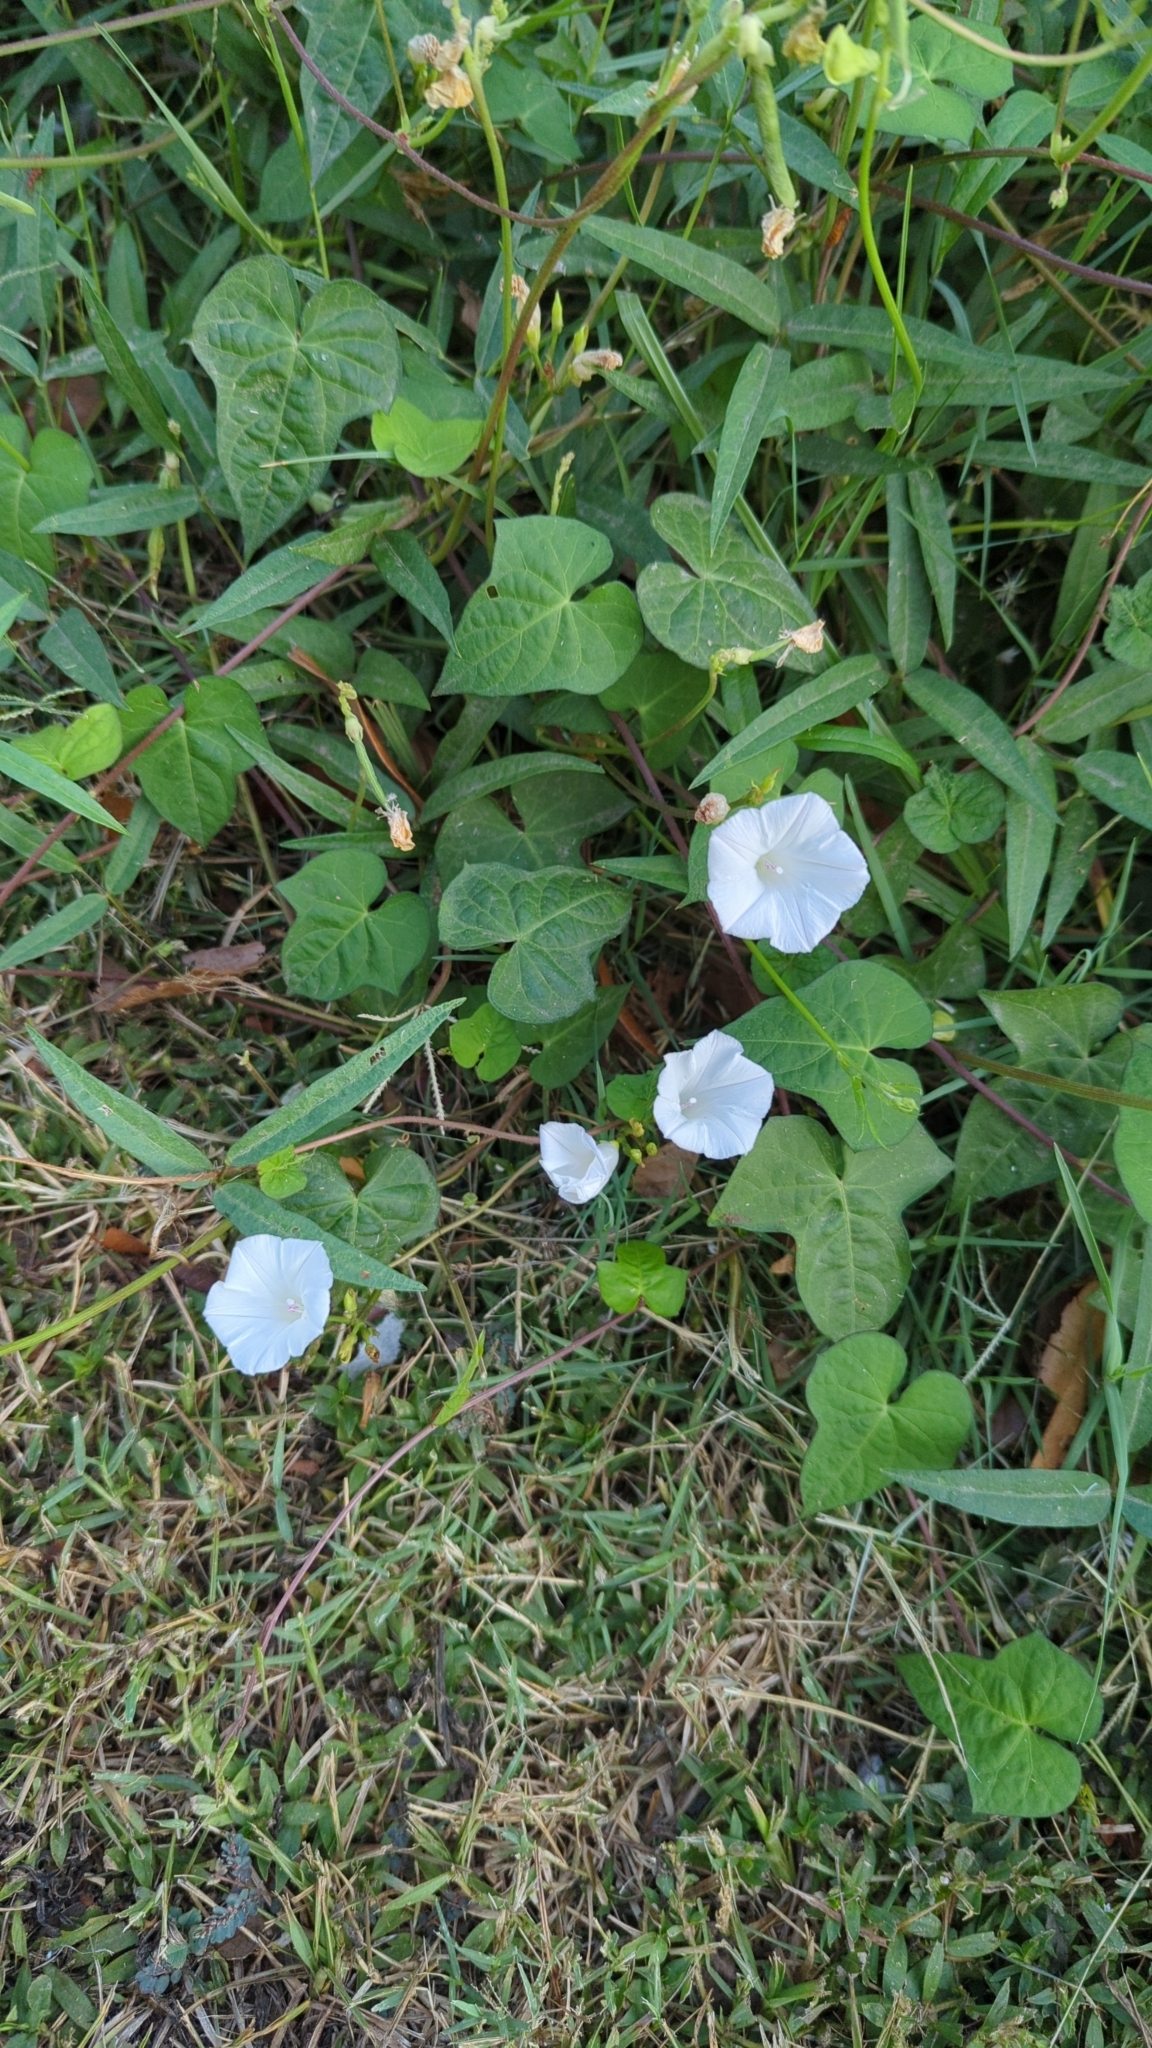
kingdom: Plantae
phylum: Tracheophyta
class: Magnoliopsida
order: Solanales
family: Convolvulaceae
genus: Ipomoea
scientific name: Ipomoea lacunosa
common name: White morning-glory
